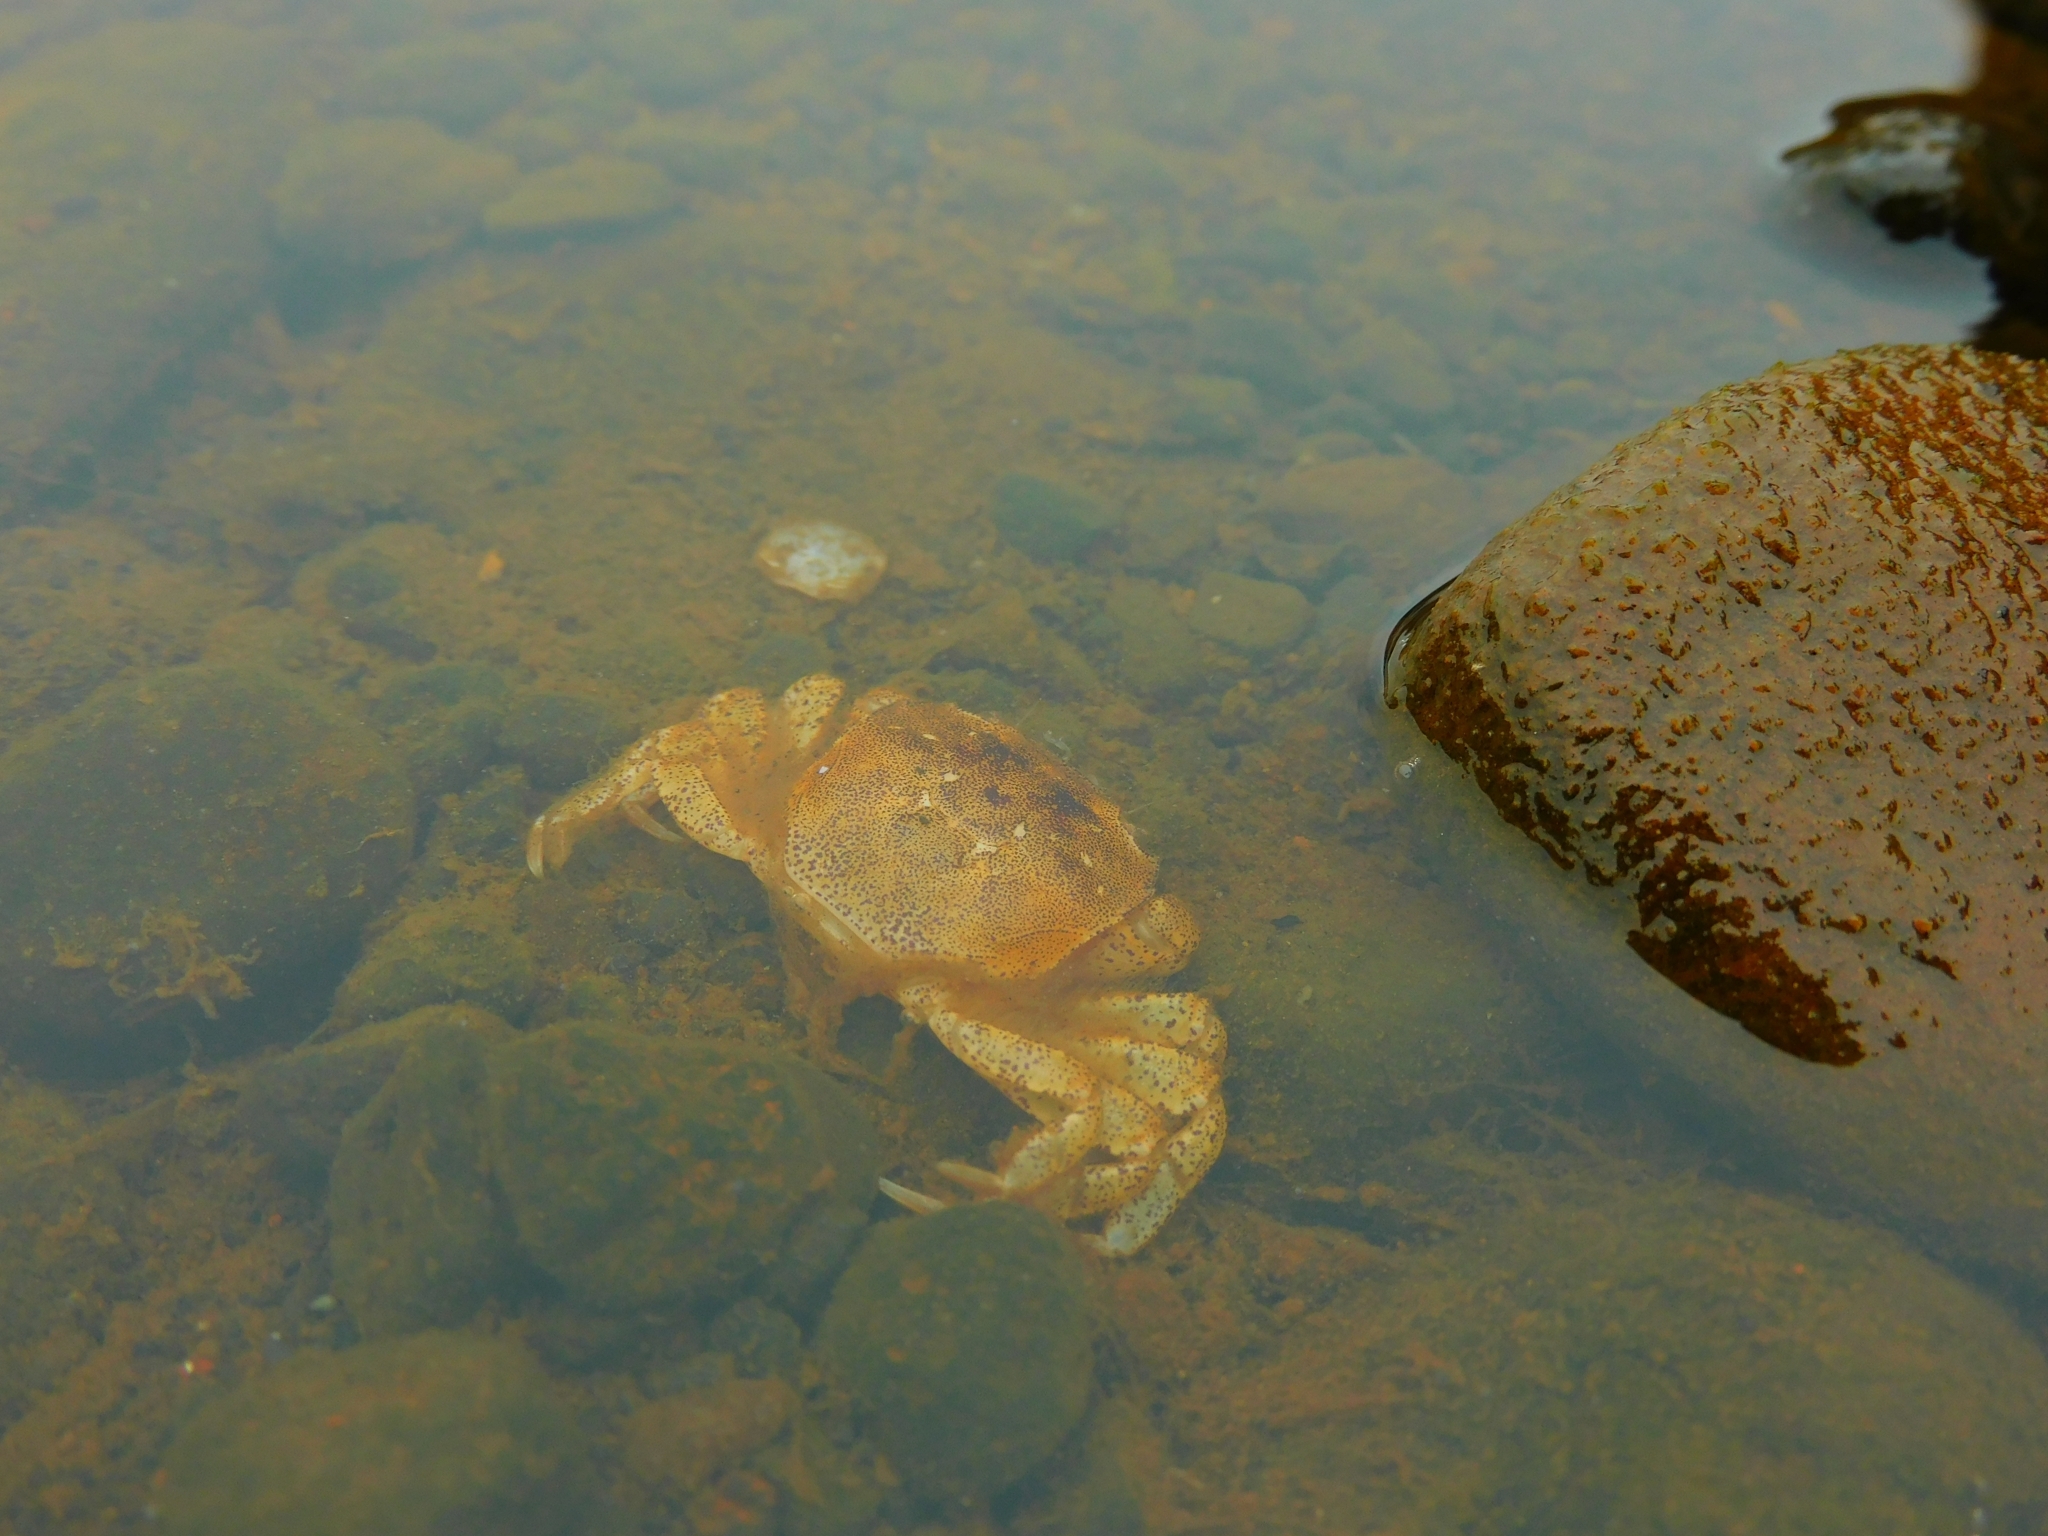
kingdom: Animalia
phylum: Arthropoda
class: Malacostraca
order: Decapoda
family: Varunidae
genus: Hemigrapsus
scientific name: Hemigrapsus crenulatus
